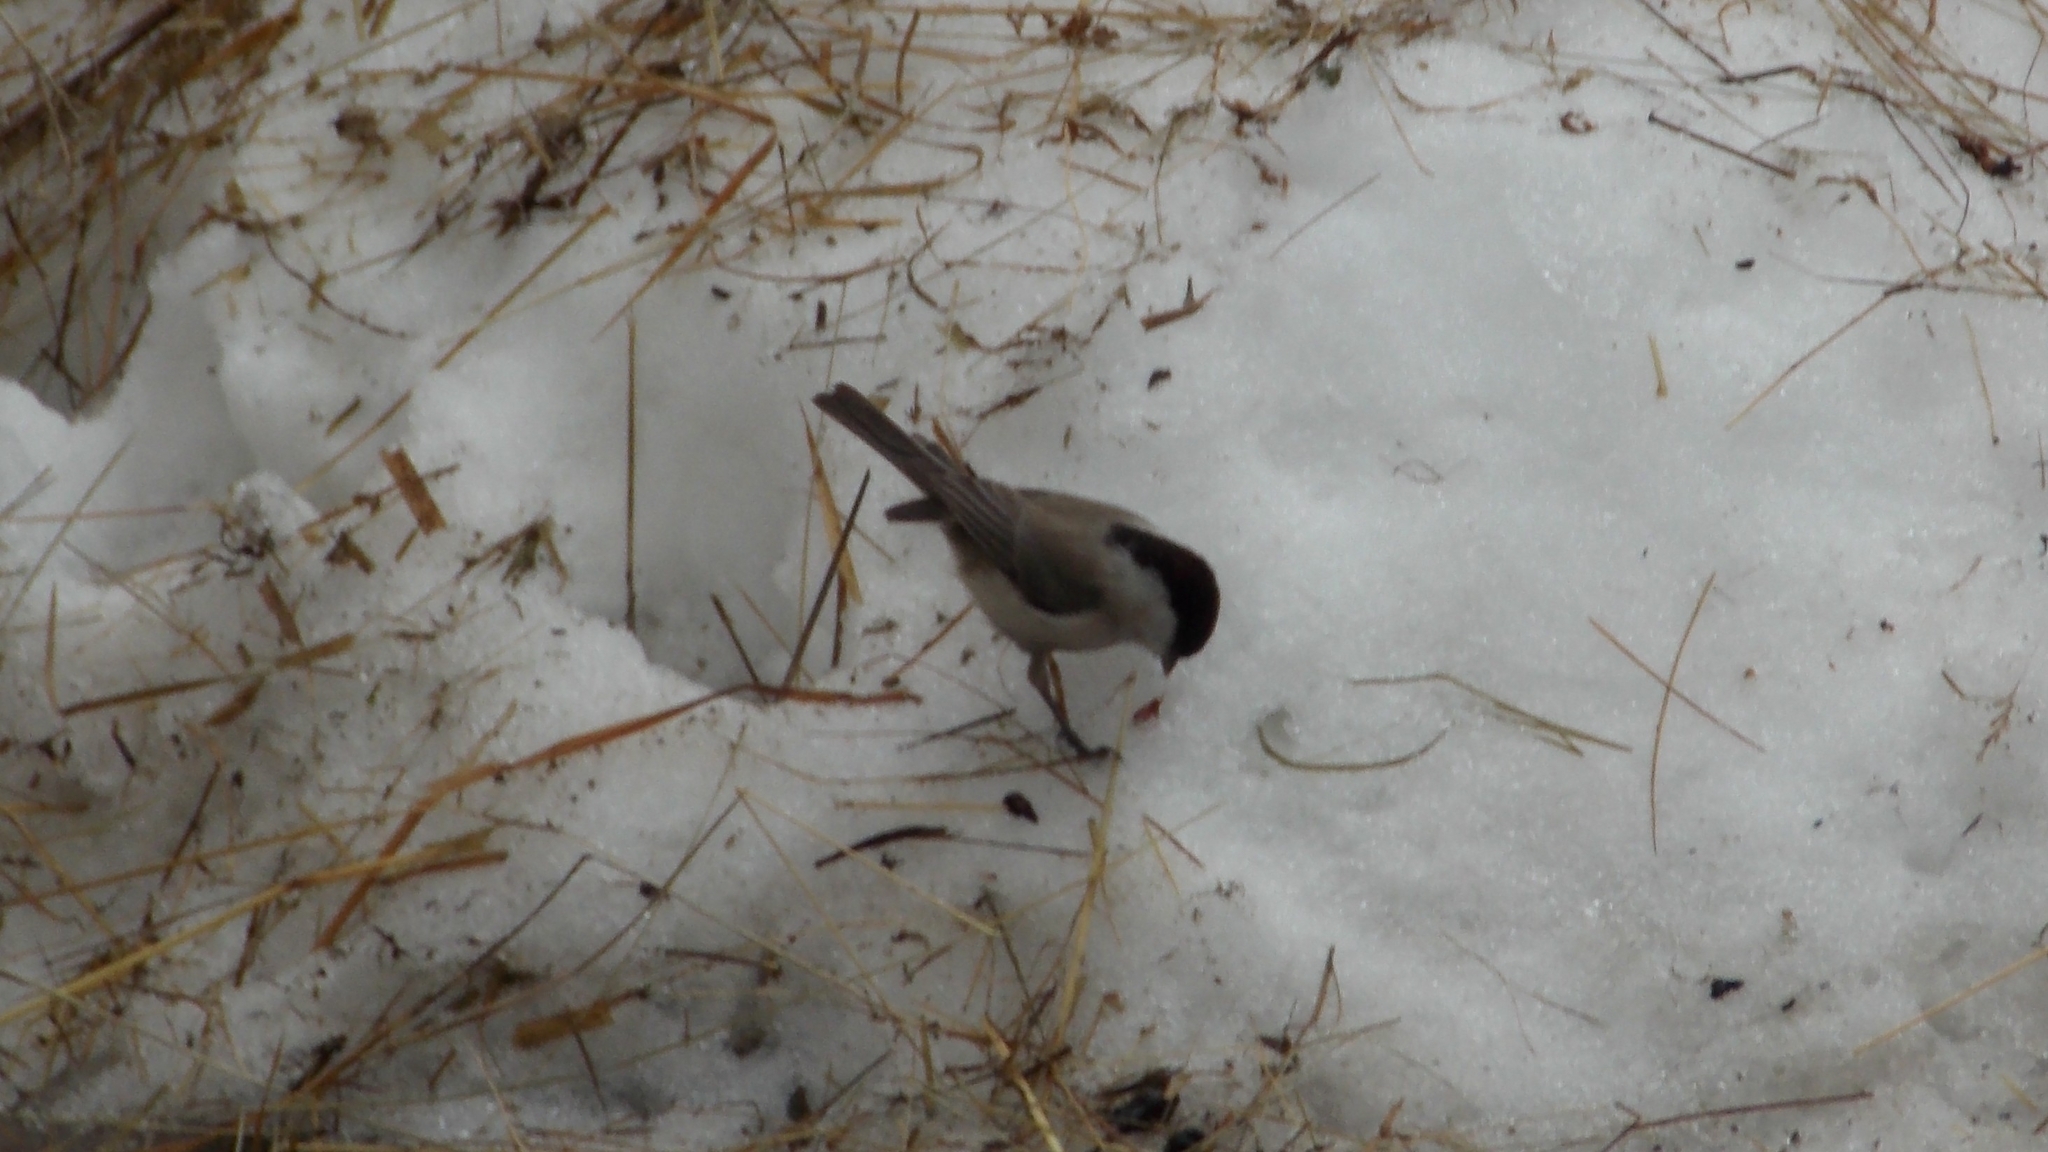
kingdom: Animalia
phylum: Chordata
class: Aves
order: Passeriformes
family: Paridae
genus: Poecile
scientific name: Poecile palustris
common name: Marsh tit
